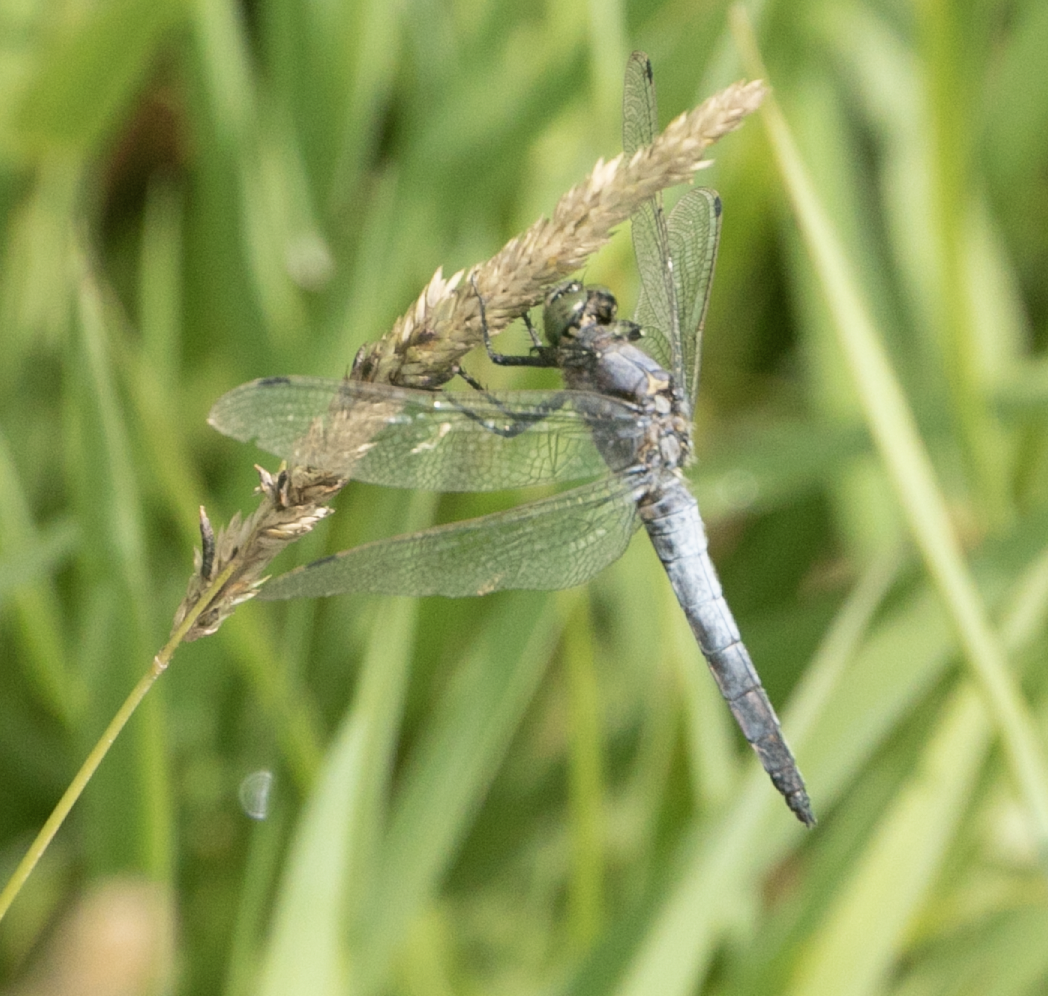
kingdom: Animalia
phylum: Arthropoda
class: Insecta
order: Odonata
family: Libellulidae
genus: Orthetrum
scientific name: Orthetrum cancellatum
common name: Black-tailed skimmer
